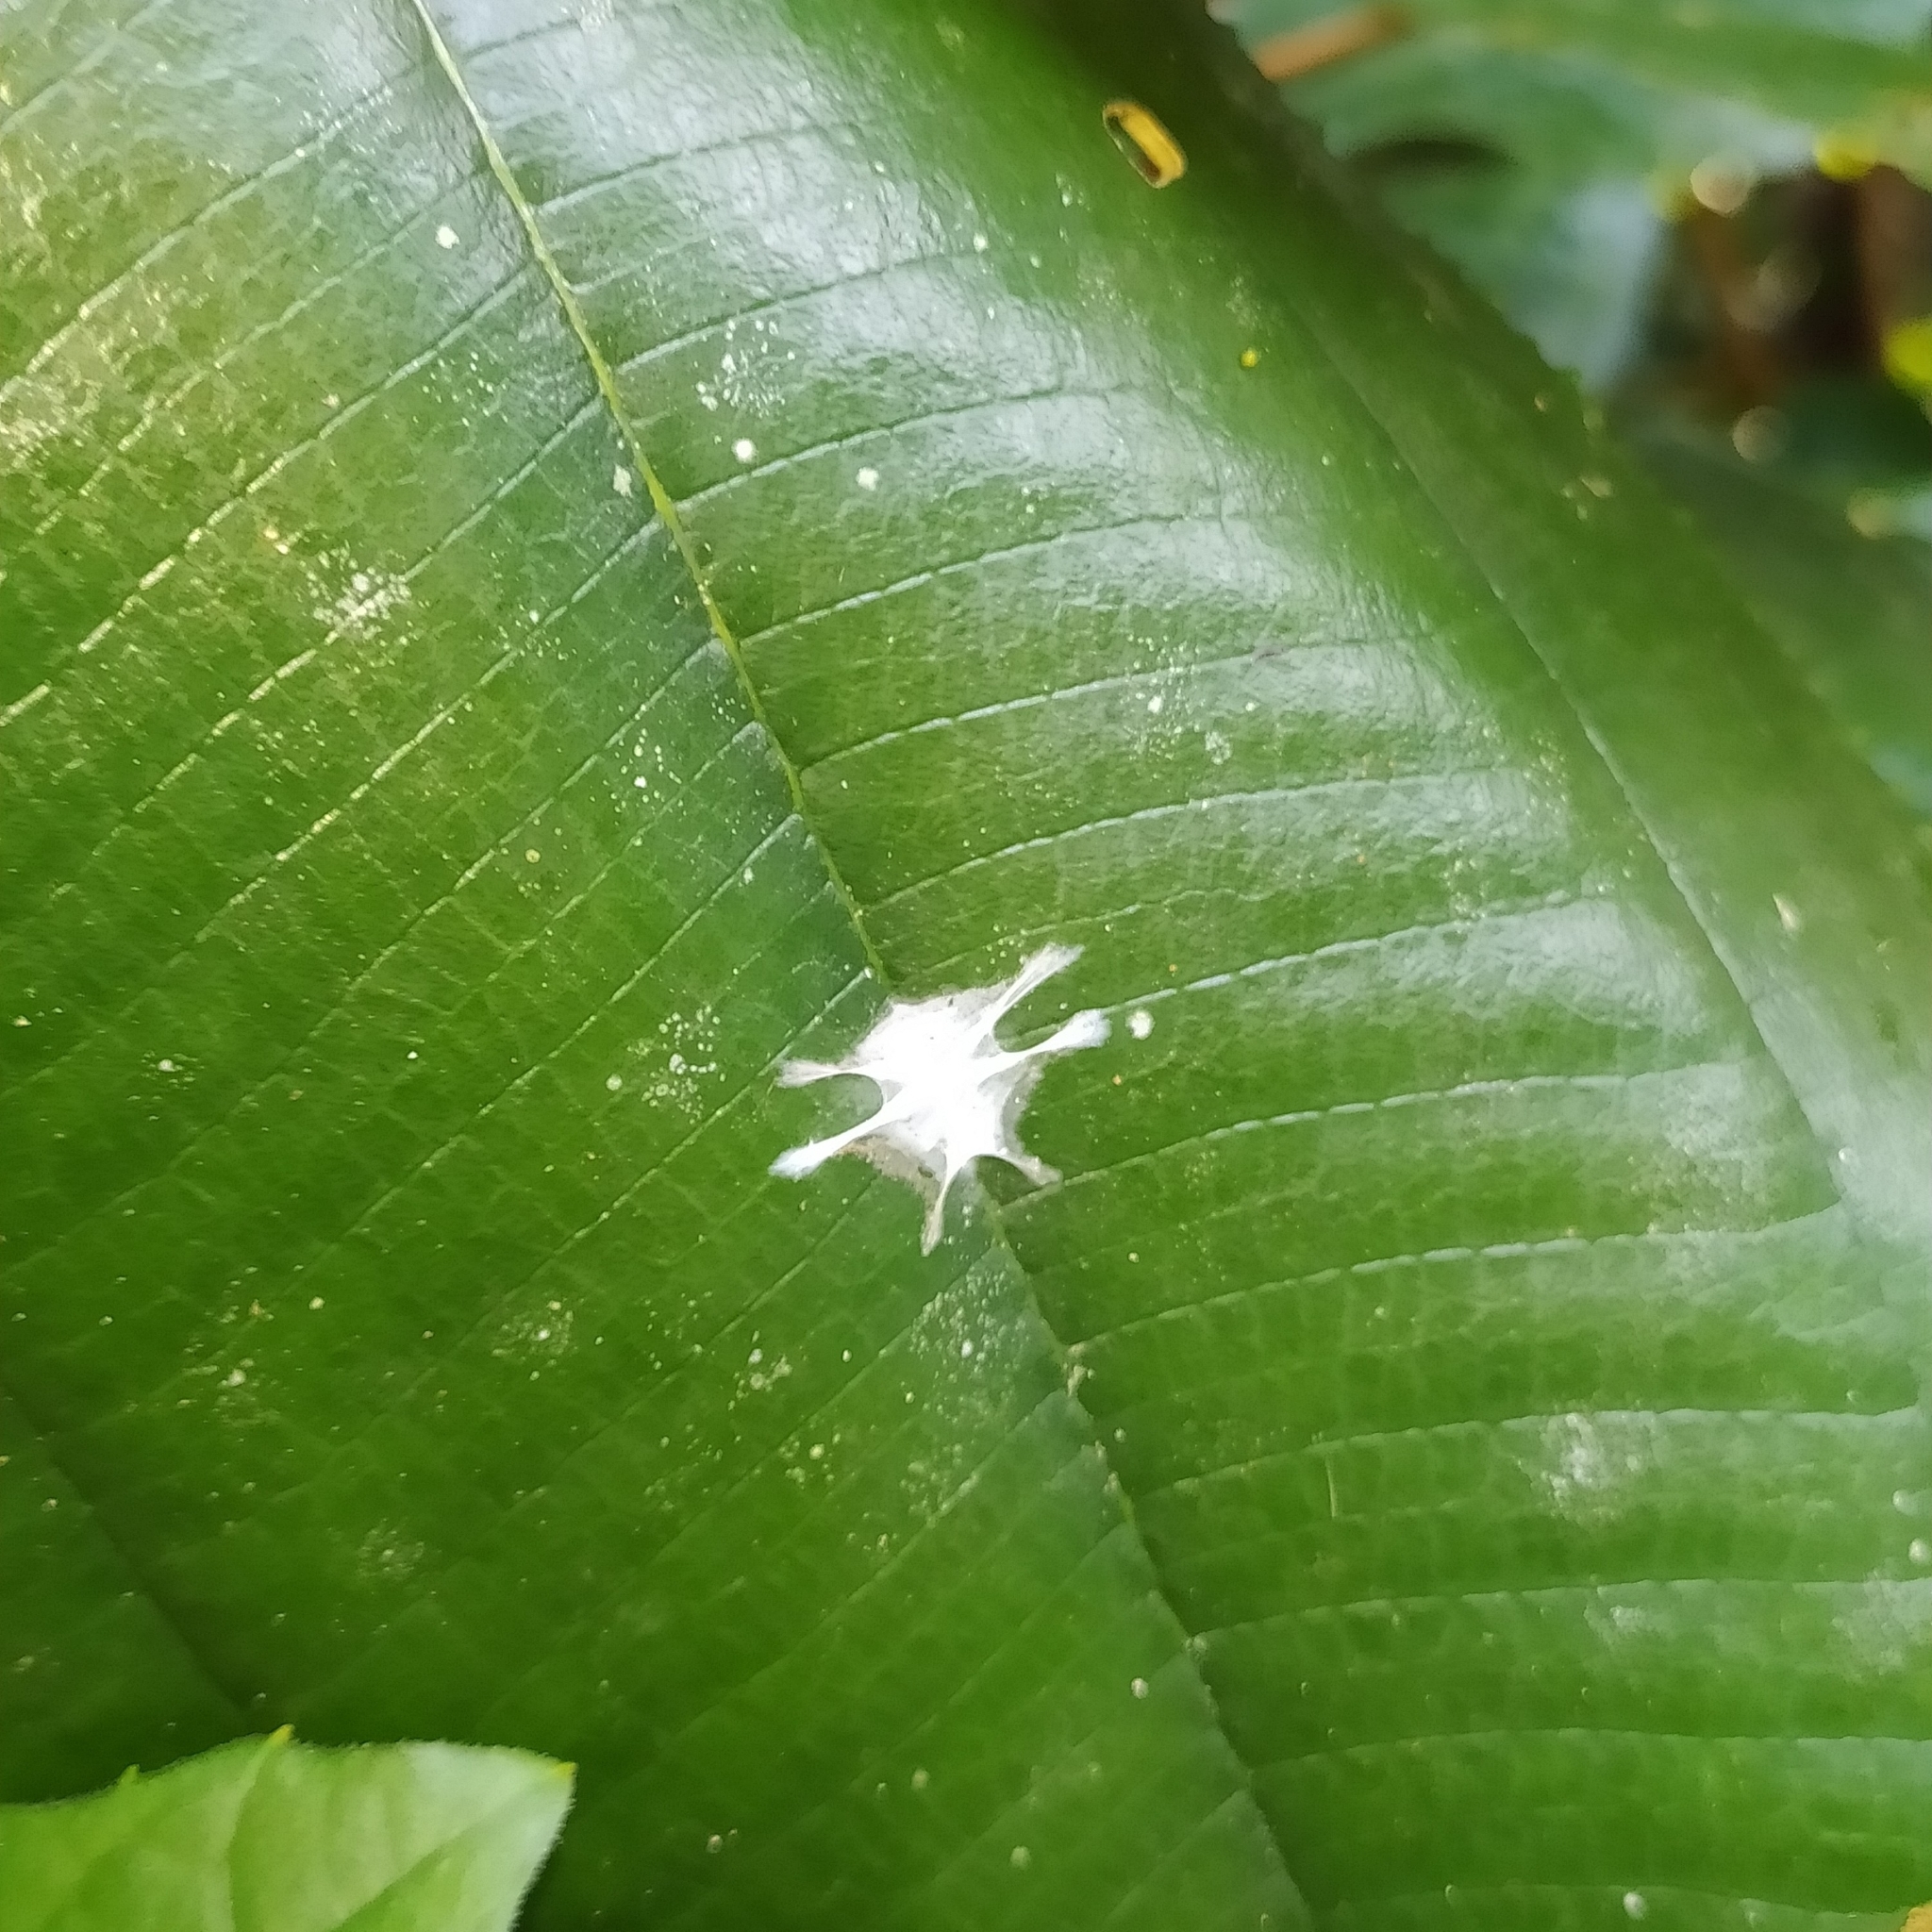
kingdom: Animalia
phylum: Arthropoda
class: Arachnida
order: Araneae
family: Salticidae
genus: Fritzia
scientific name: Fritzia
